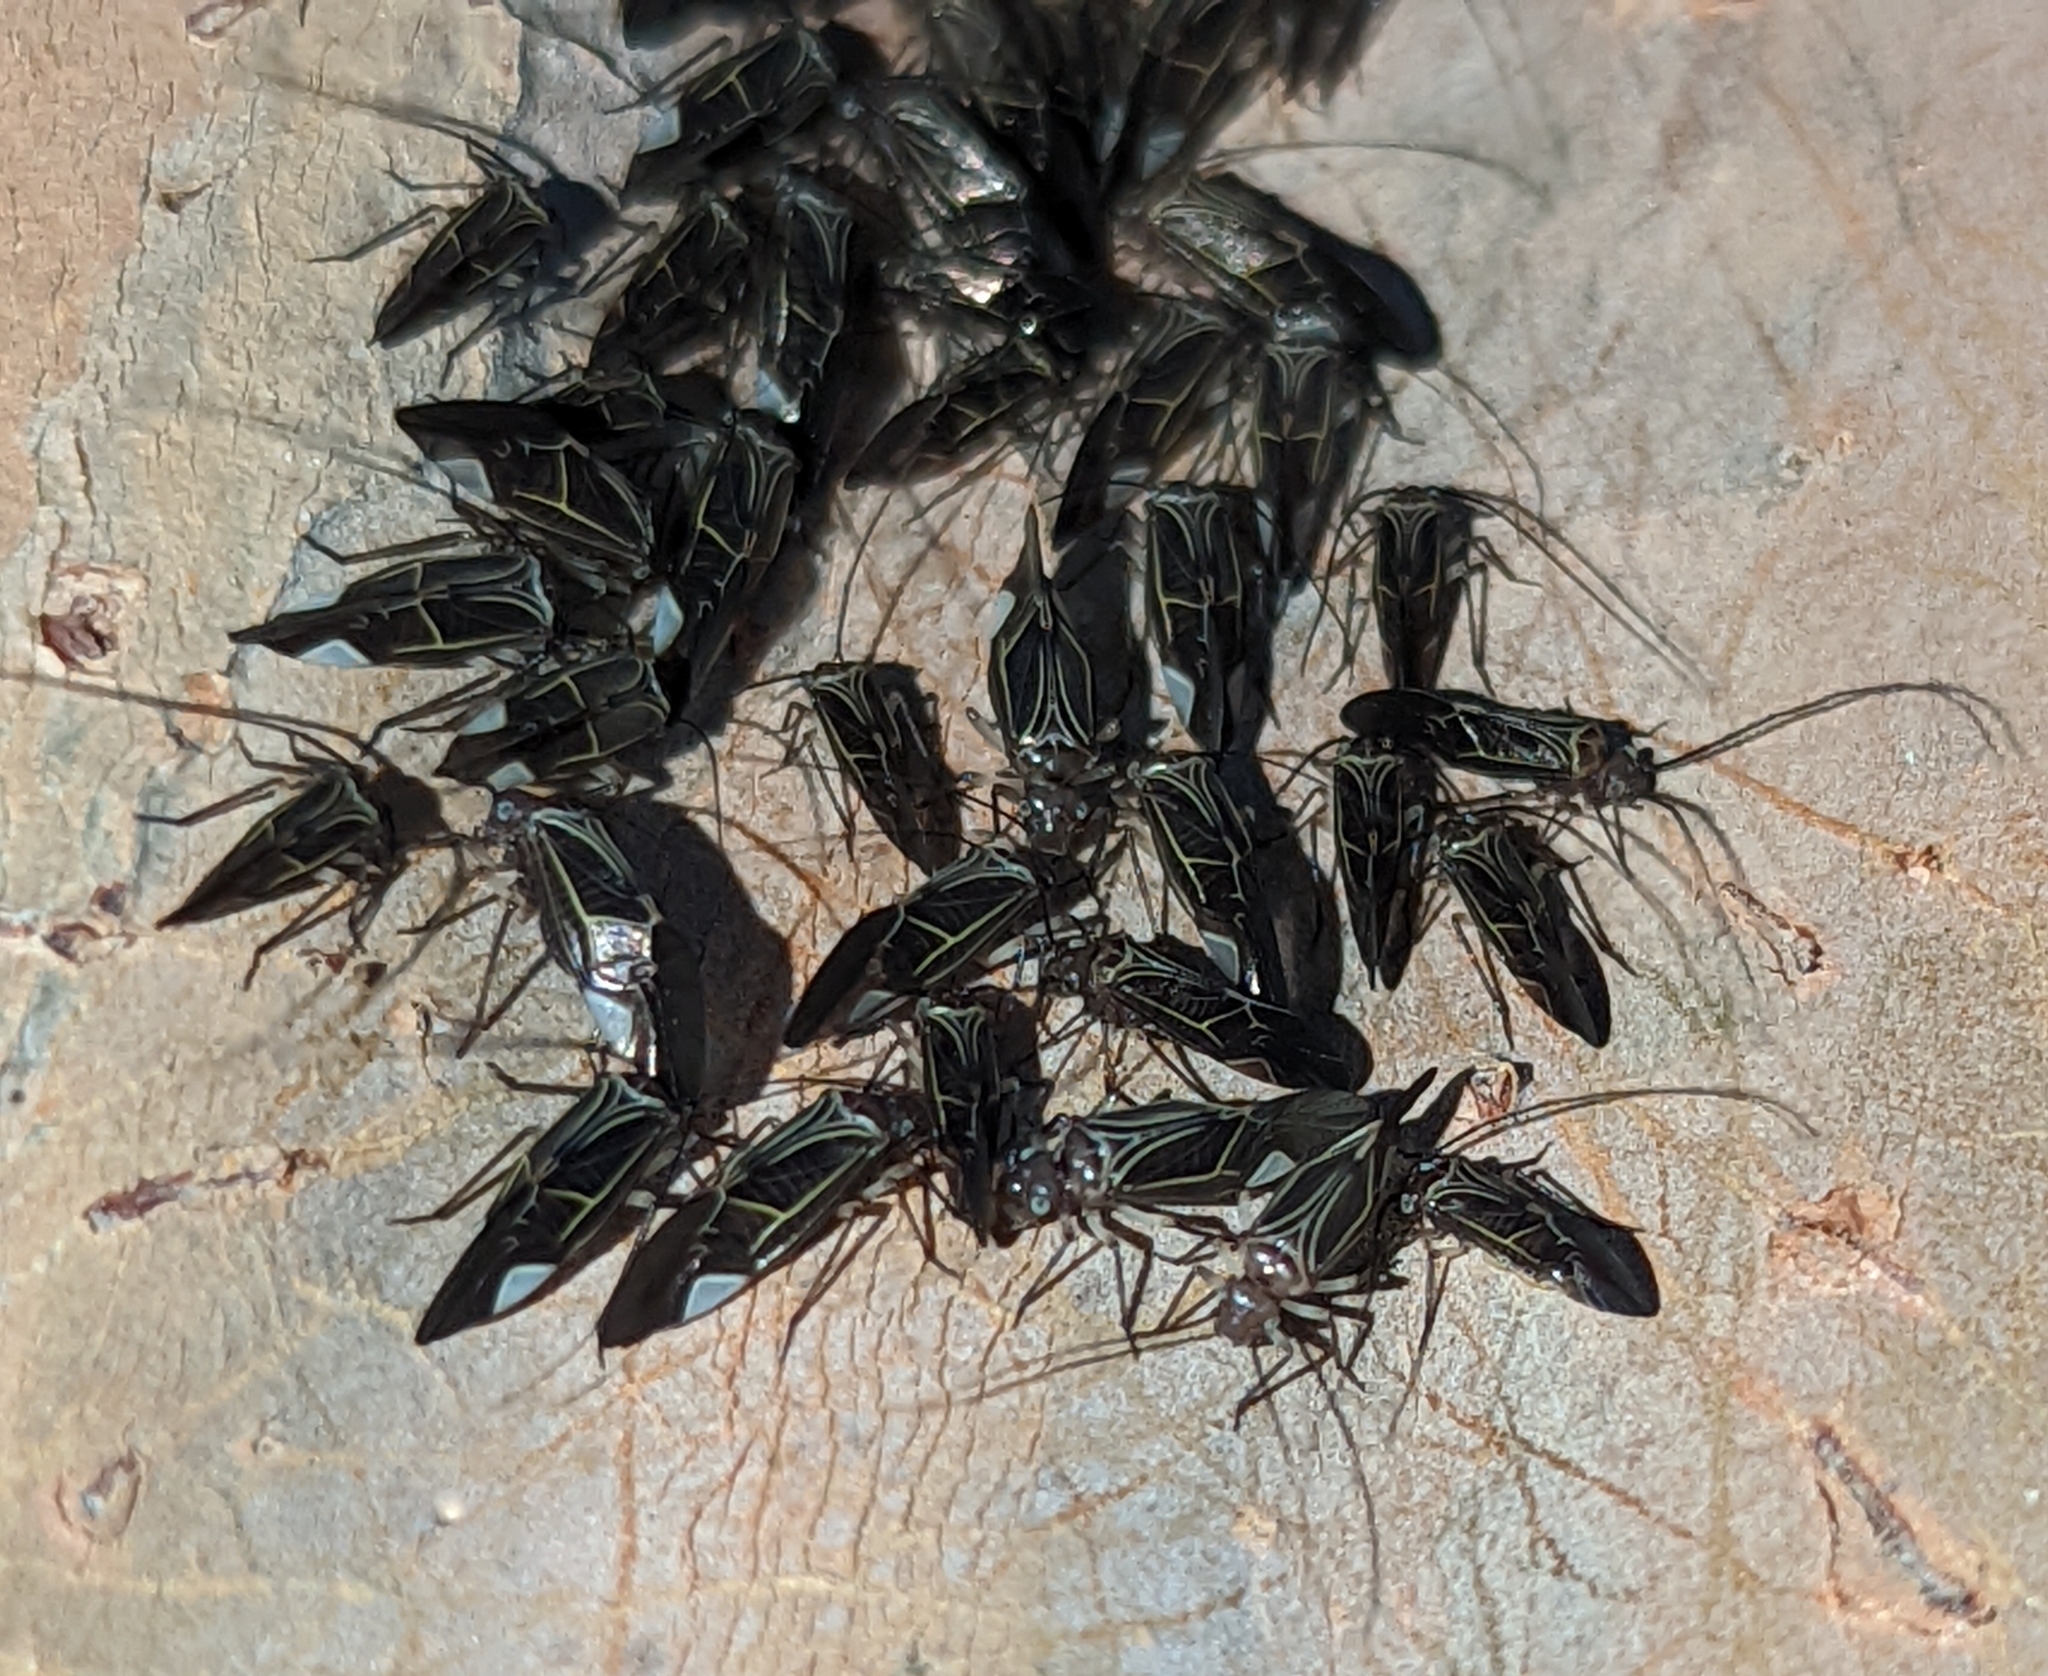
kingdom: Animalia
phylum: Arthropoda
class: Insecta
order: Psocodea
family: Psocidae
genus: Cerastipsocus
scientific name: Cerastipsocus venosus
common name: Tree cattle
